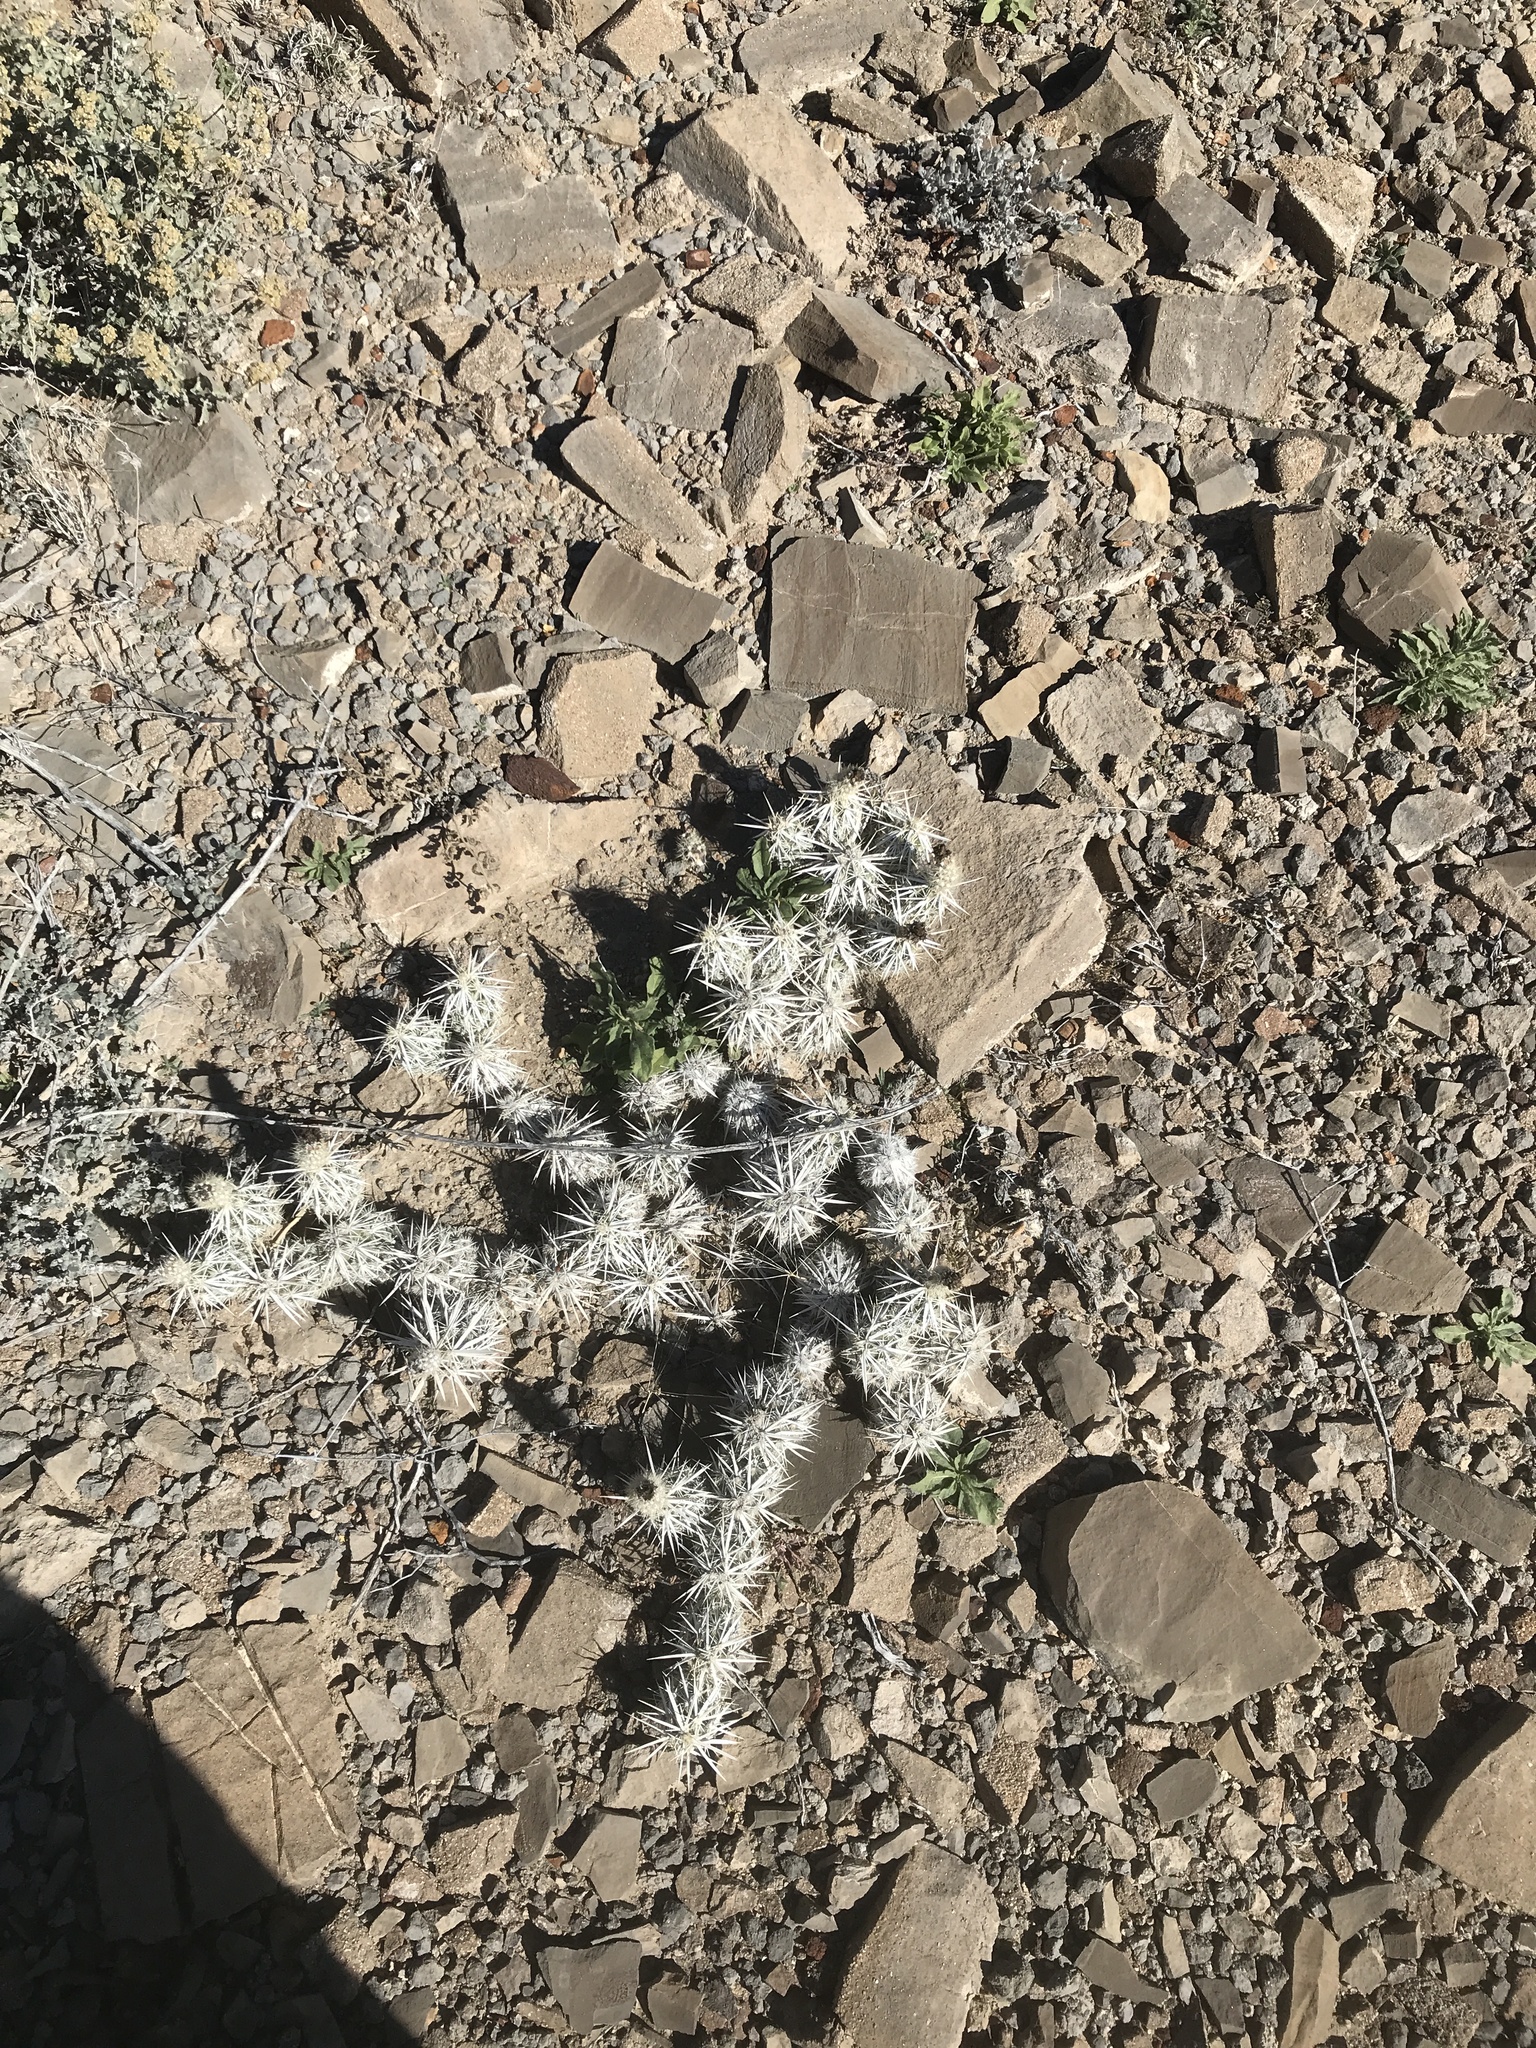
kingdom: Plantae
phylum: Tracheophyta
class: Magnoliopsida
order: Caryophyllales
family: Cactaceae
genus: Grusonia
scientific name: Grusonia clavata
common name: Club cholla
